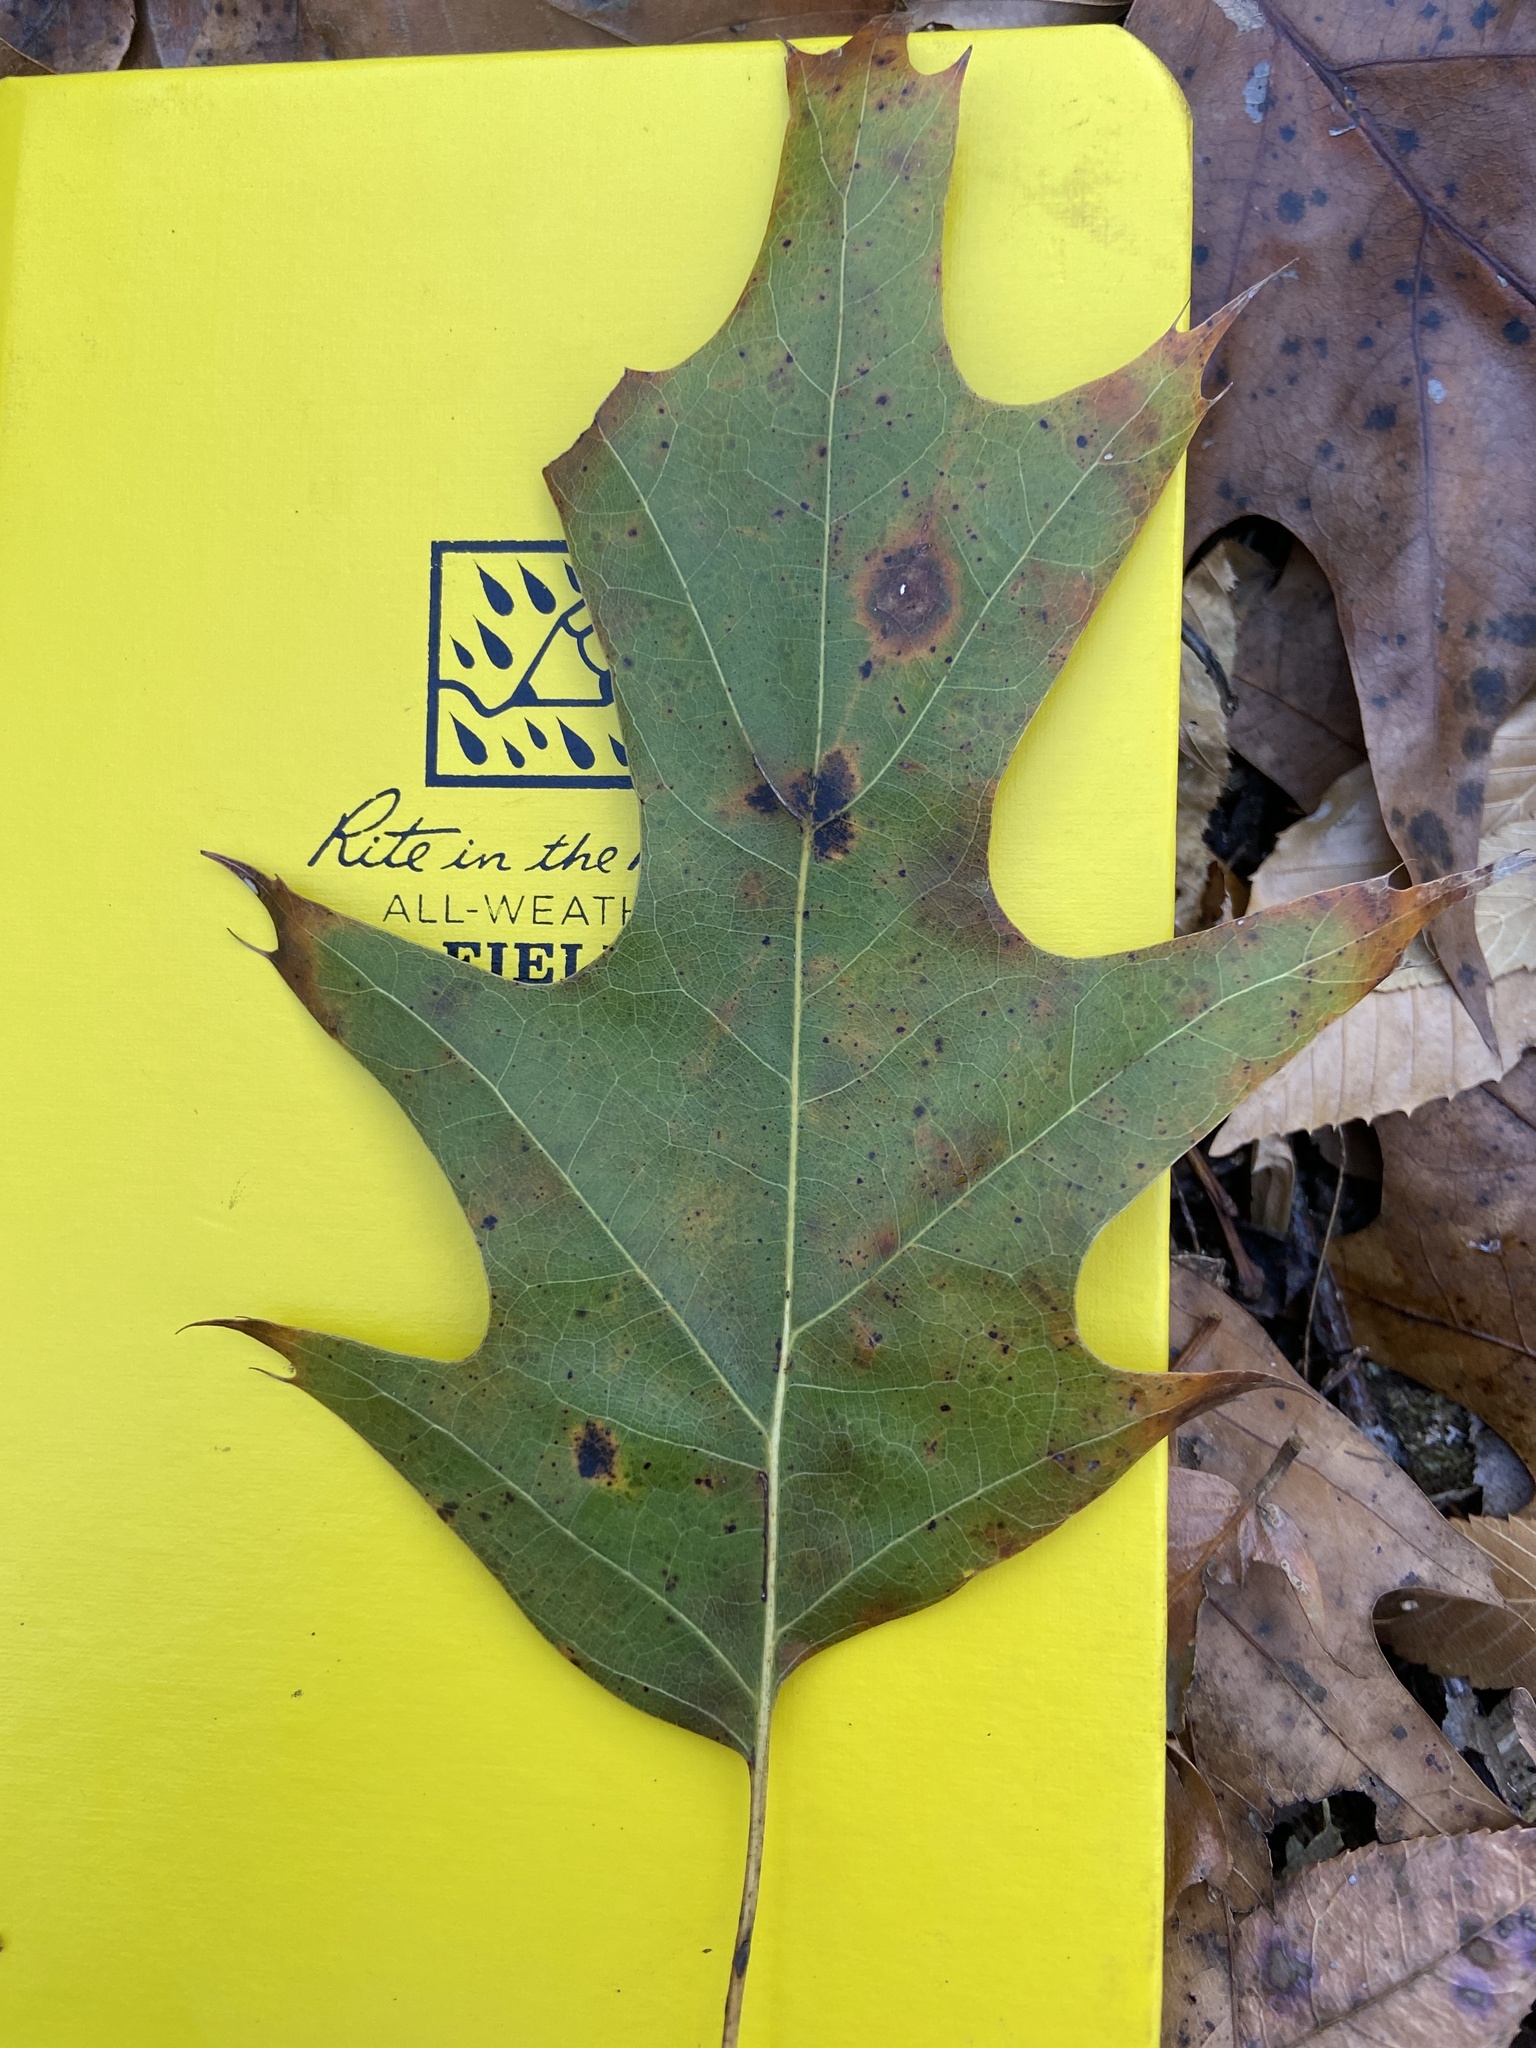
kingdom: Plantae
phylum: Tracheophyta
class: Magnoliopsida
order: Fagales
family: Fagaceae
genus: Quercus
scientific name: Quercus pagoda
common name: Cherrybark oak
